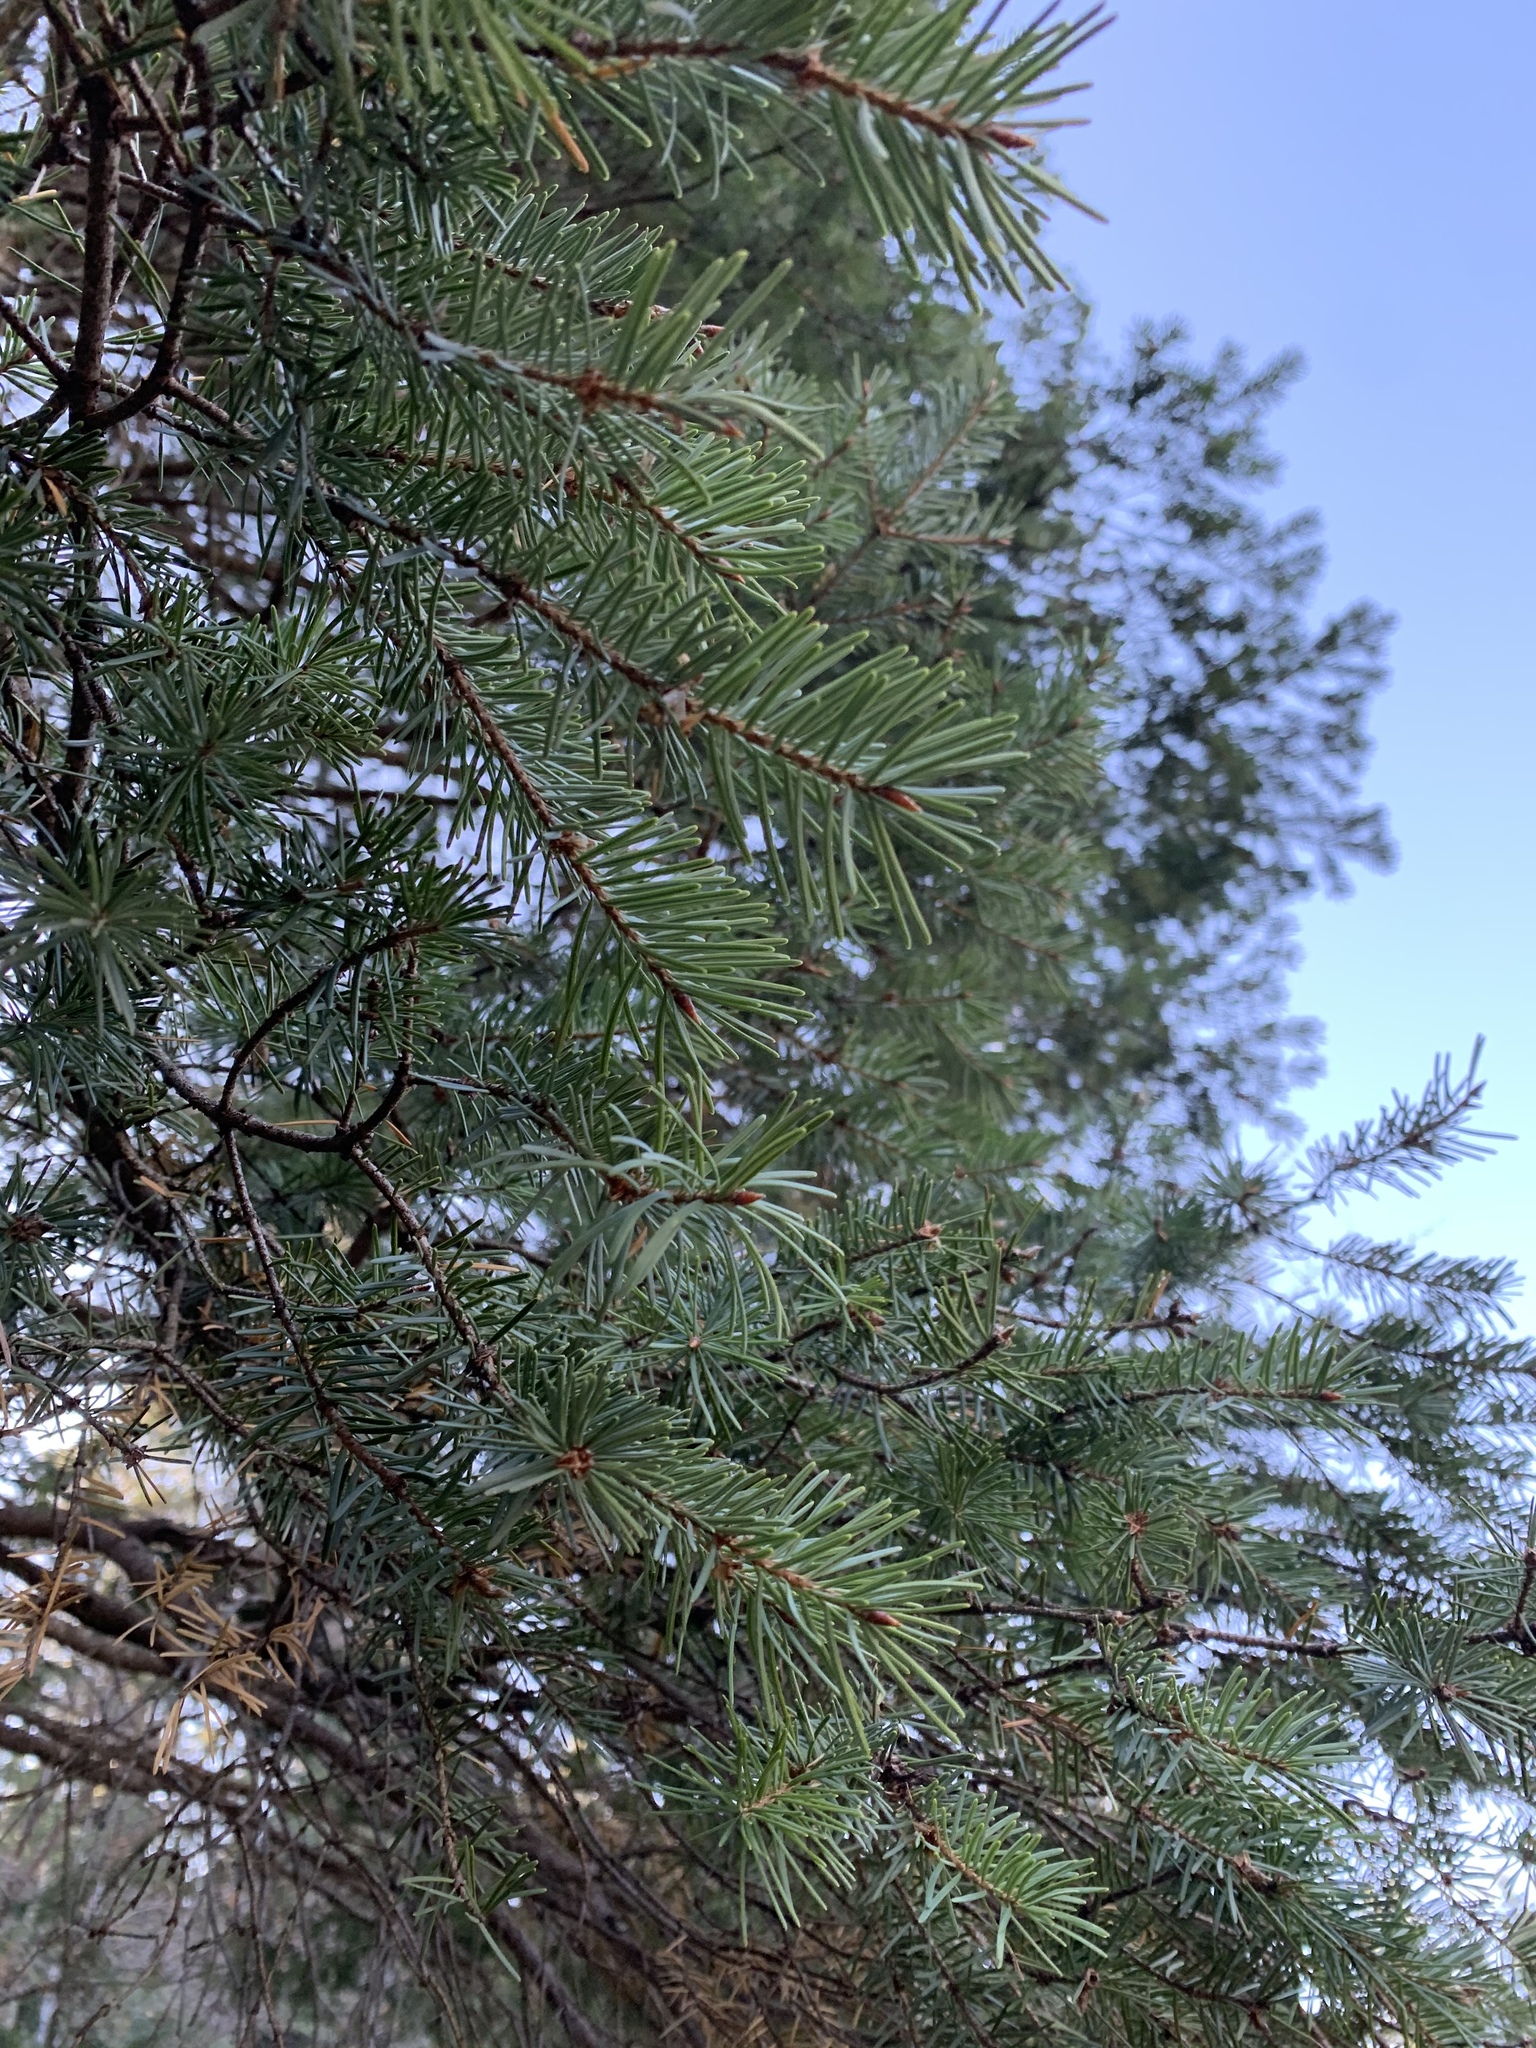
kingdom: Plantae
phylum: Tracheophyta
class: Pinopsida
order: Pinales
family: Pinaceae
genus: Pseudotsuga
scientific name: Pseudotsuga menziesii
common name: Douglas fir
